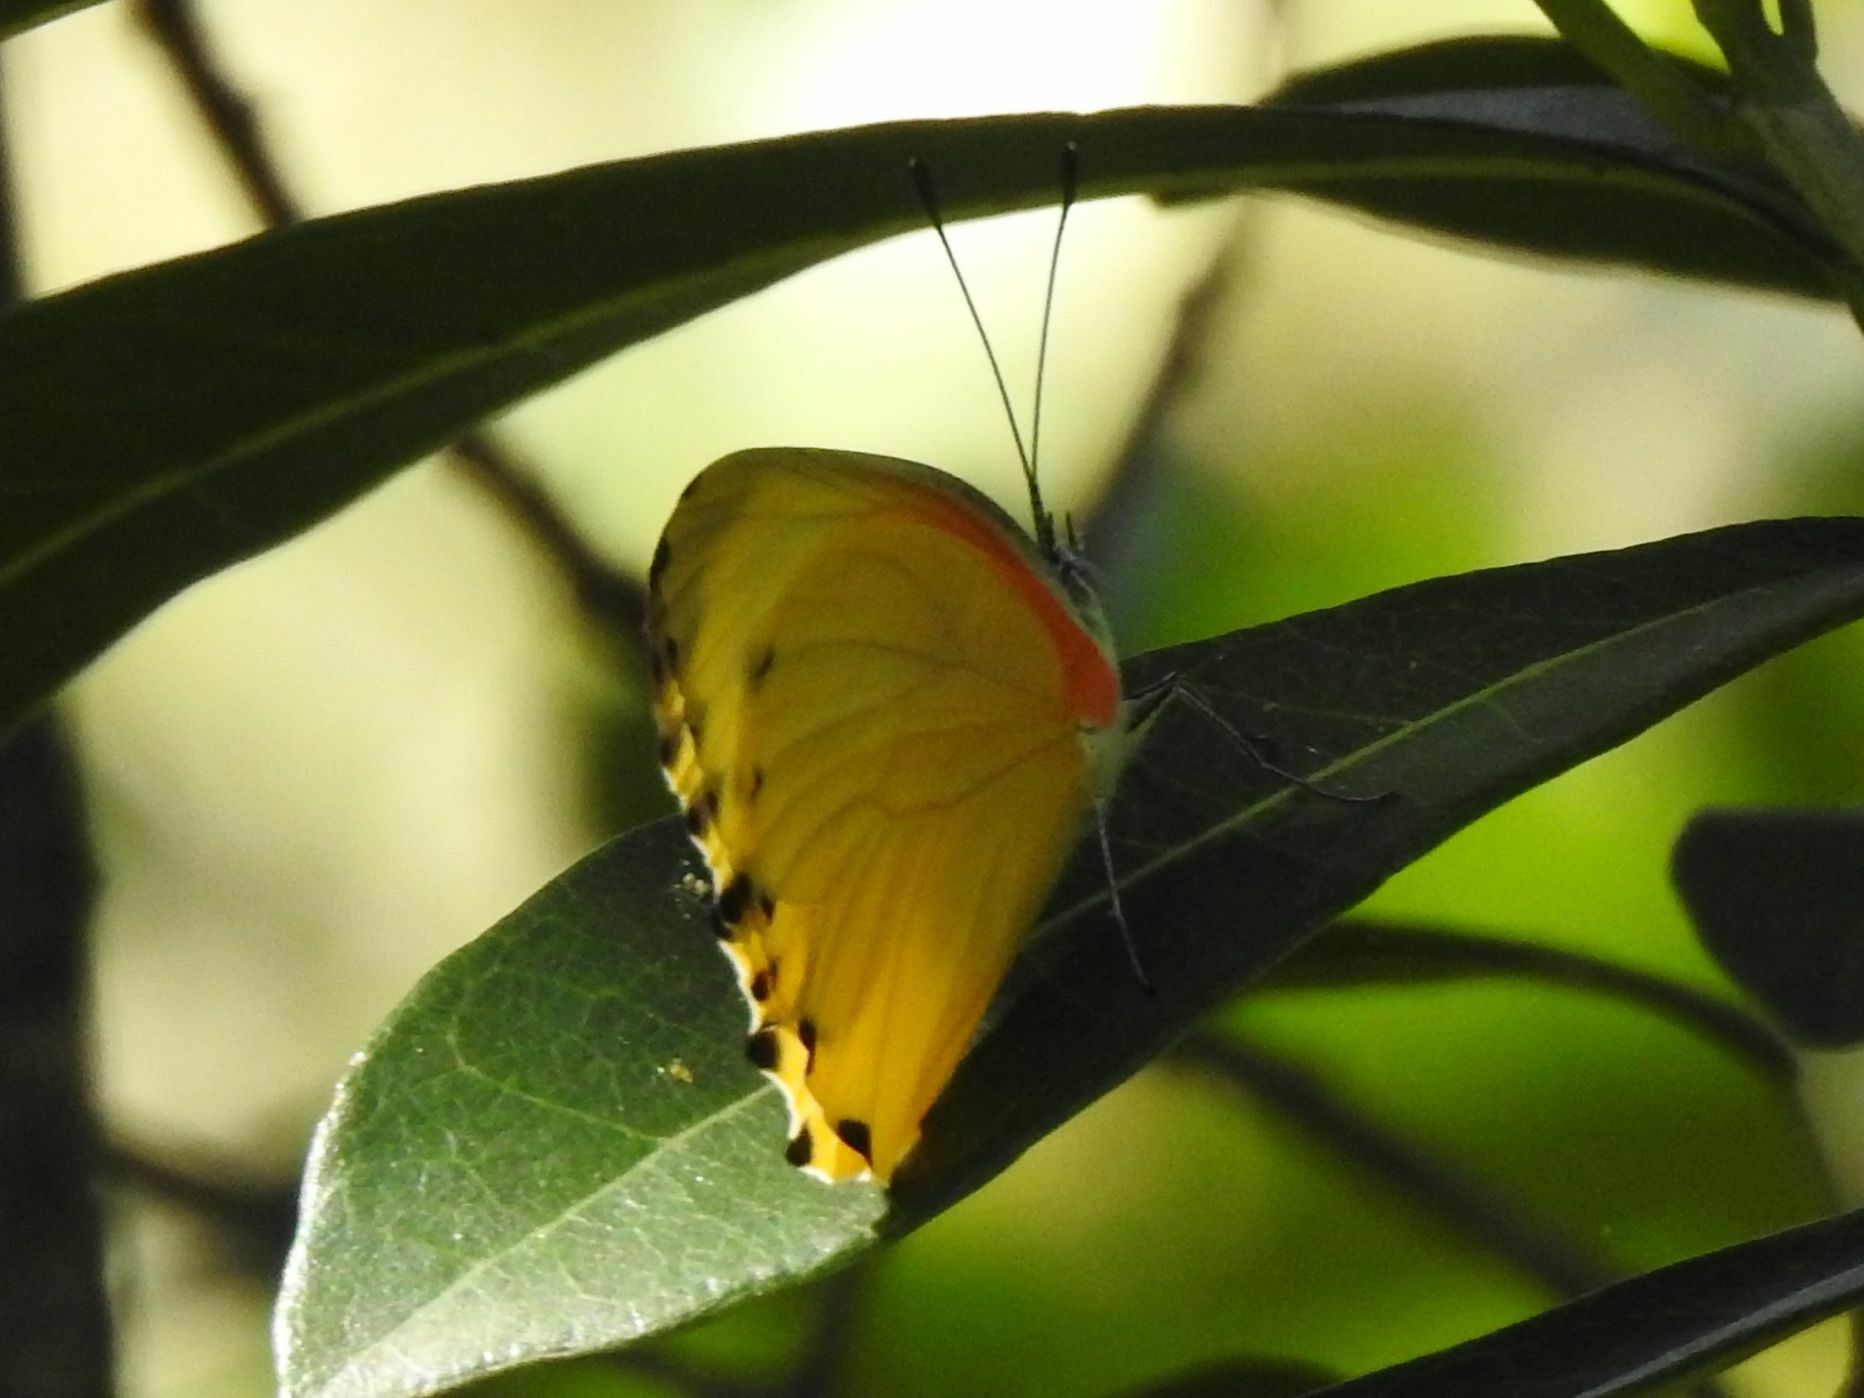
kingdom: Animalia
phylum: Arthropoda
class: Insecta
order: Lepidoptera
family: Pieridae
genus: Mylothris
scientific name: Mylothris agathina
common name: Eastern dotted border
